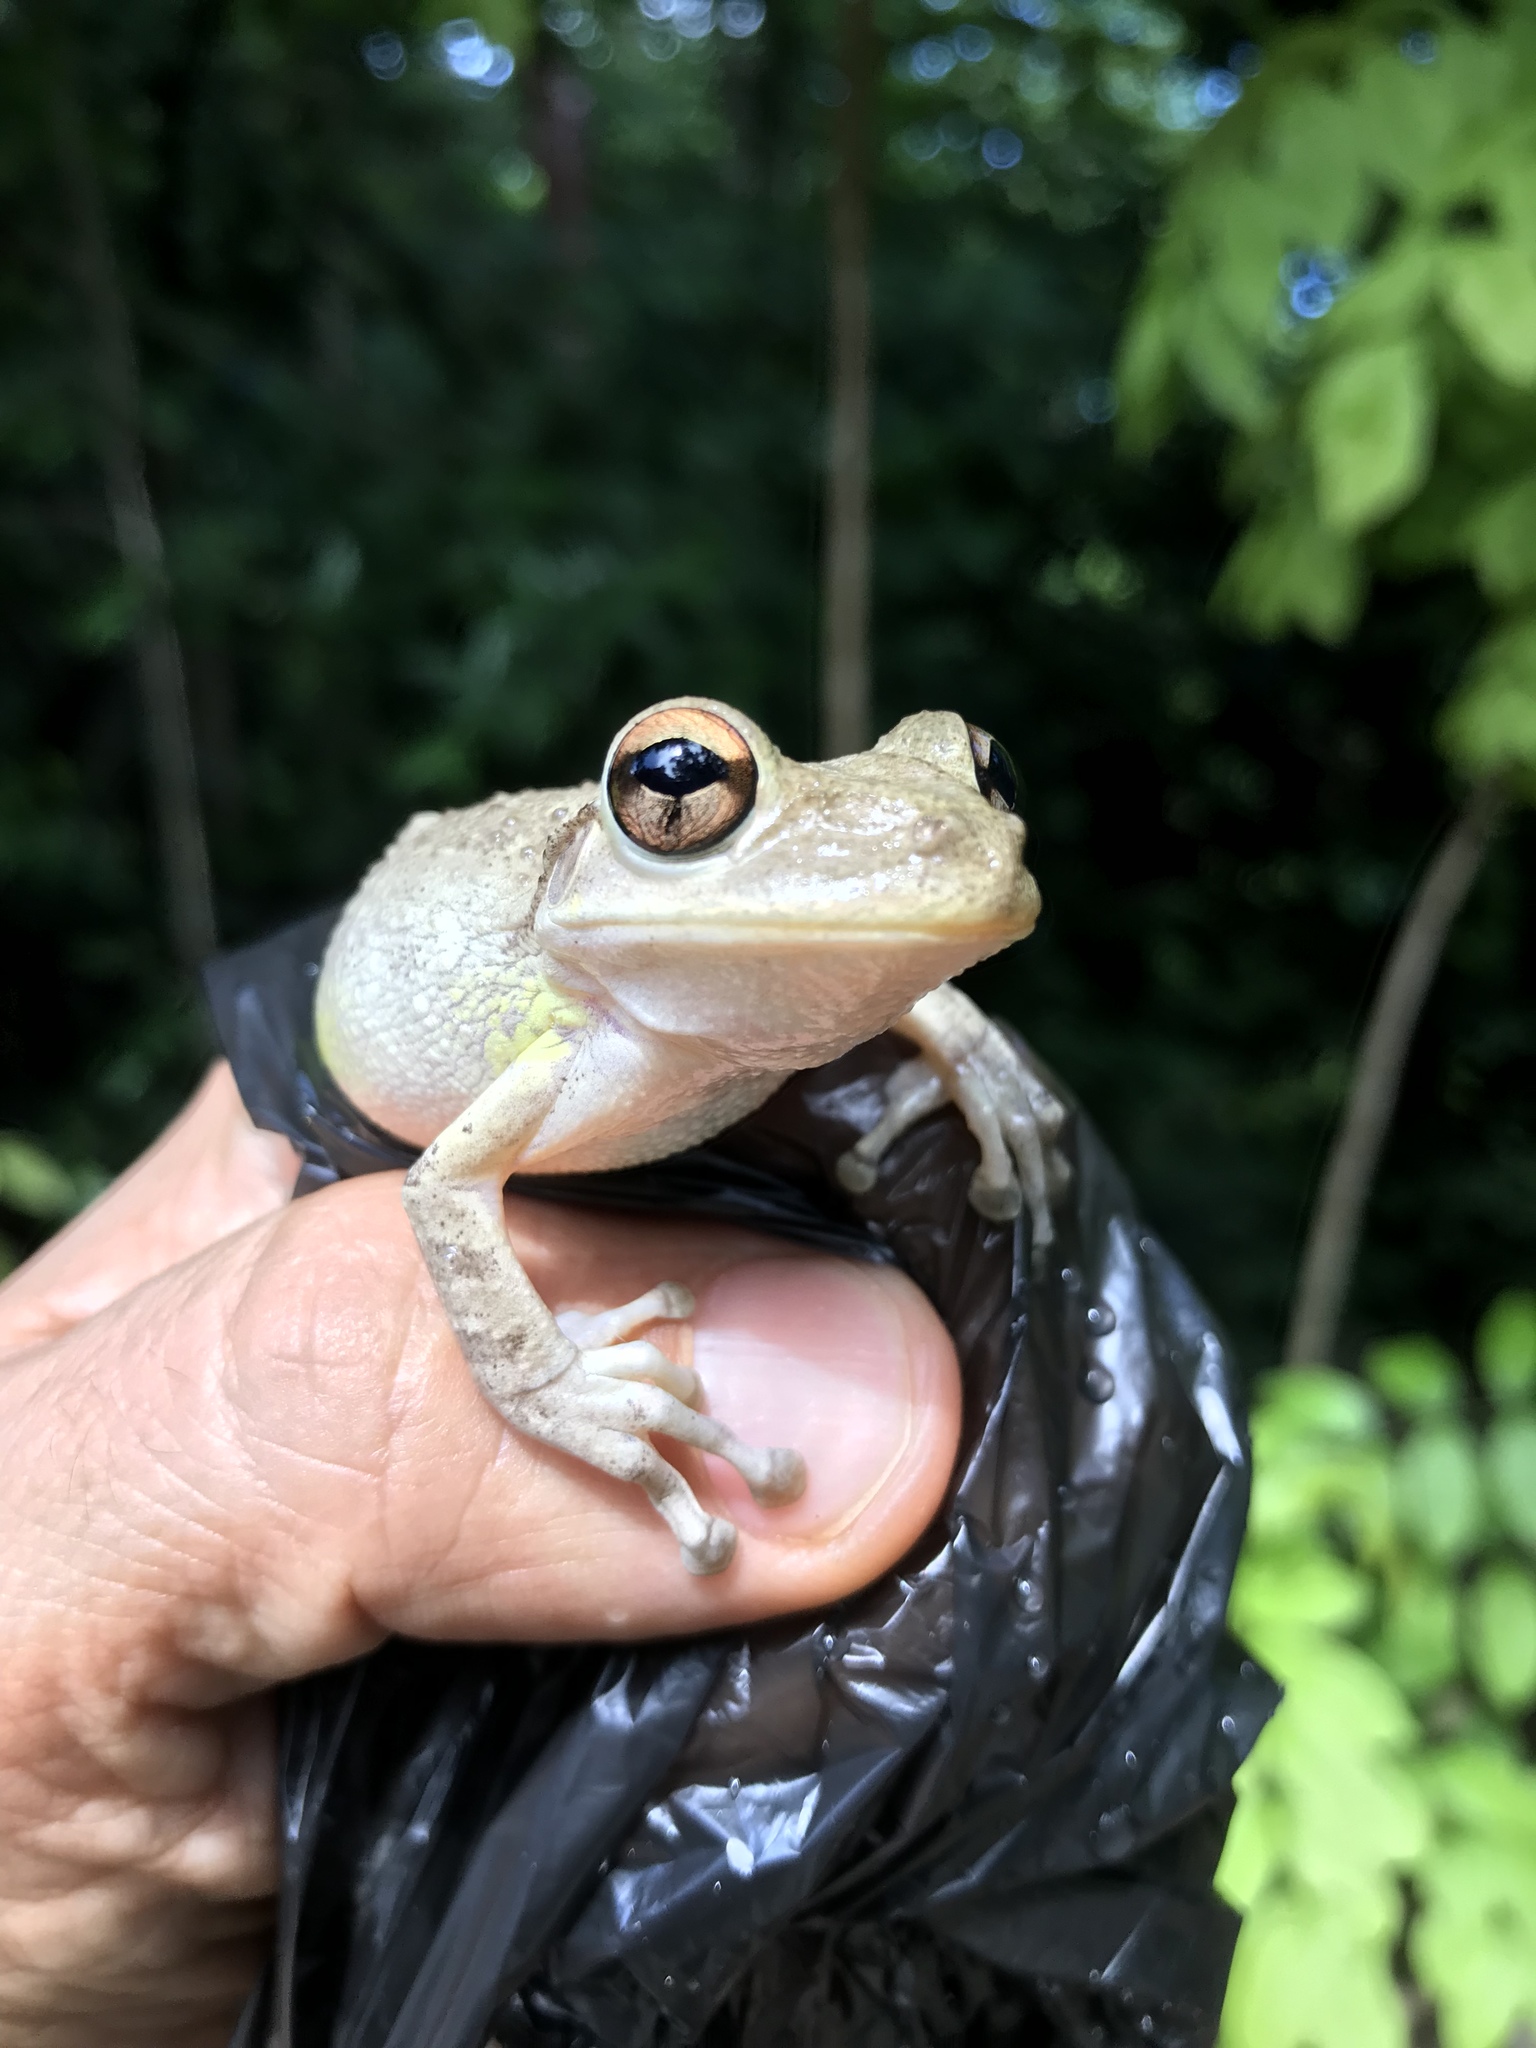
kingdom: Animalia
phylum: Chordata
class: Amphibia
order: Anura
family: Hylidae
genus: Osteopilus
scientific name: Osteopilus septentrionalis
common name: Cuban treefrog
